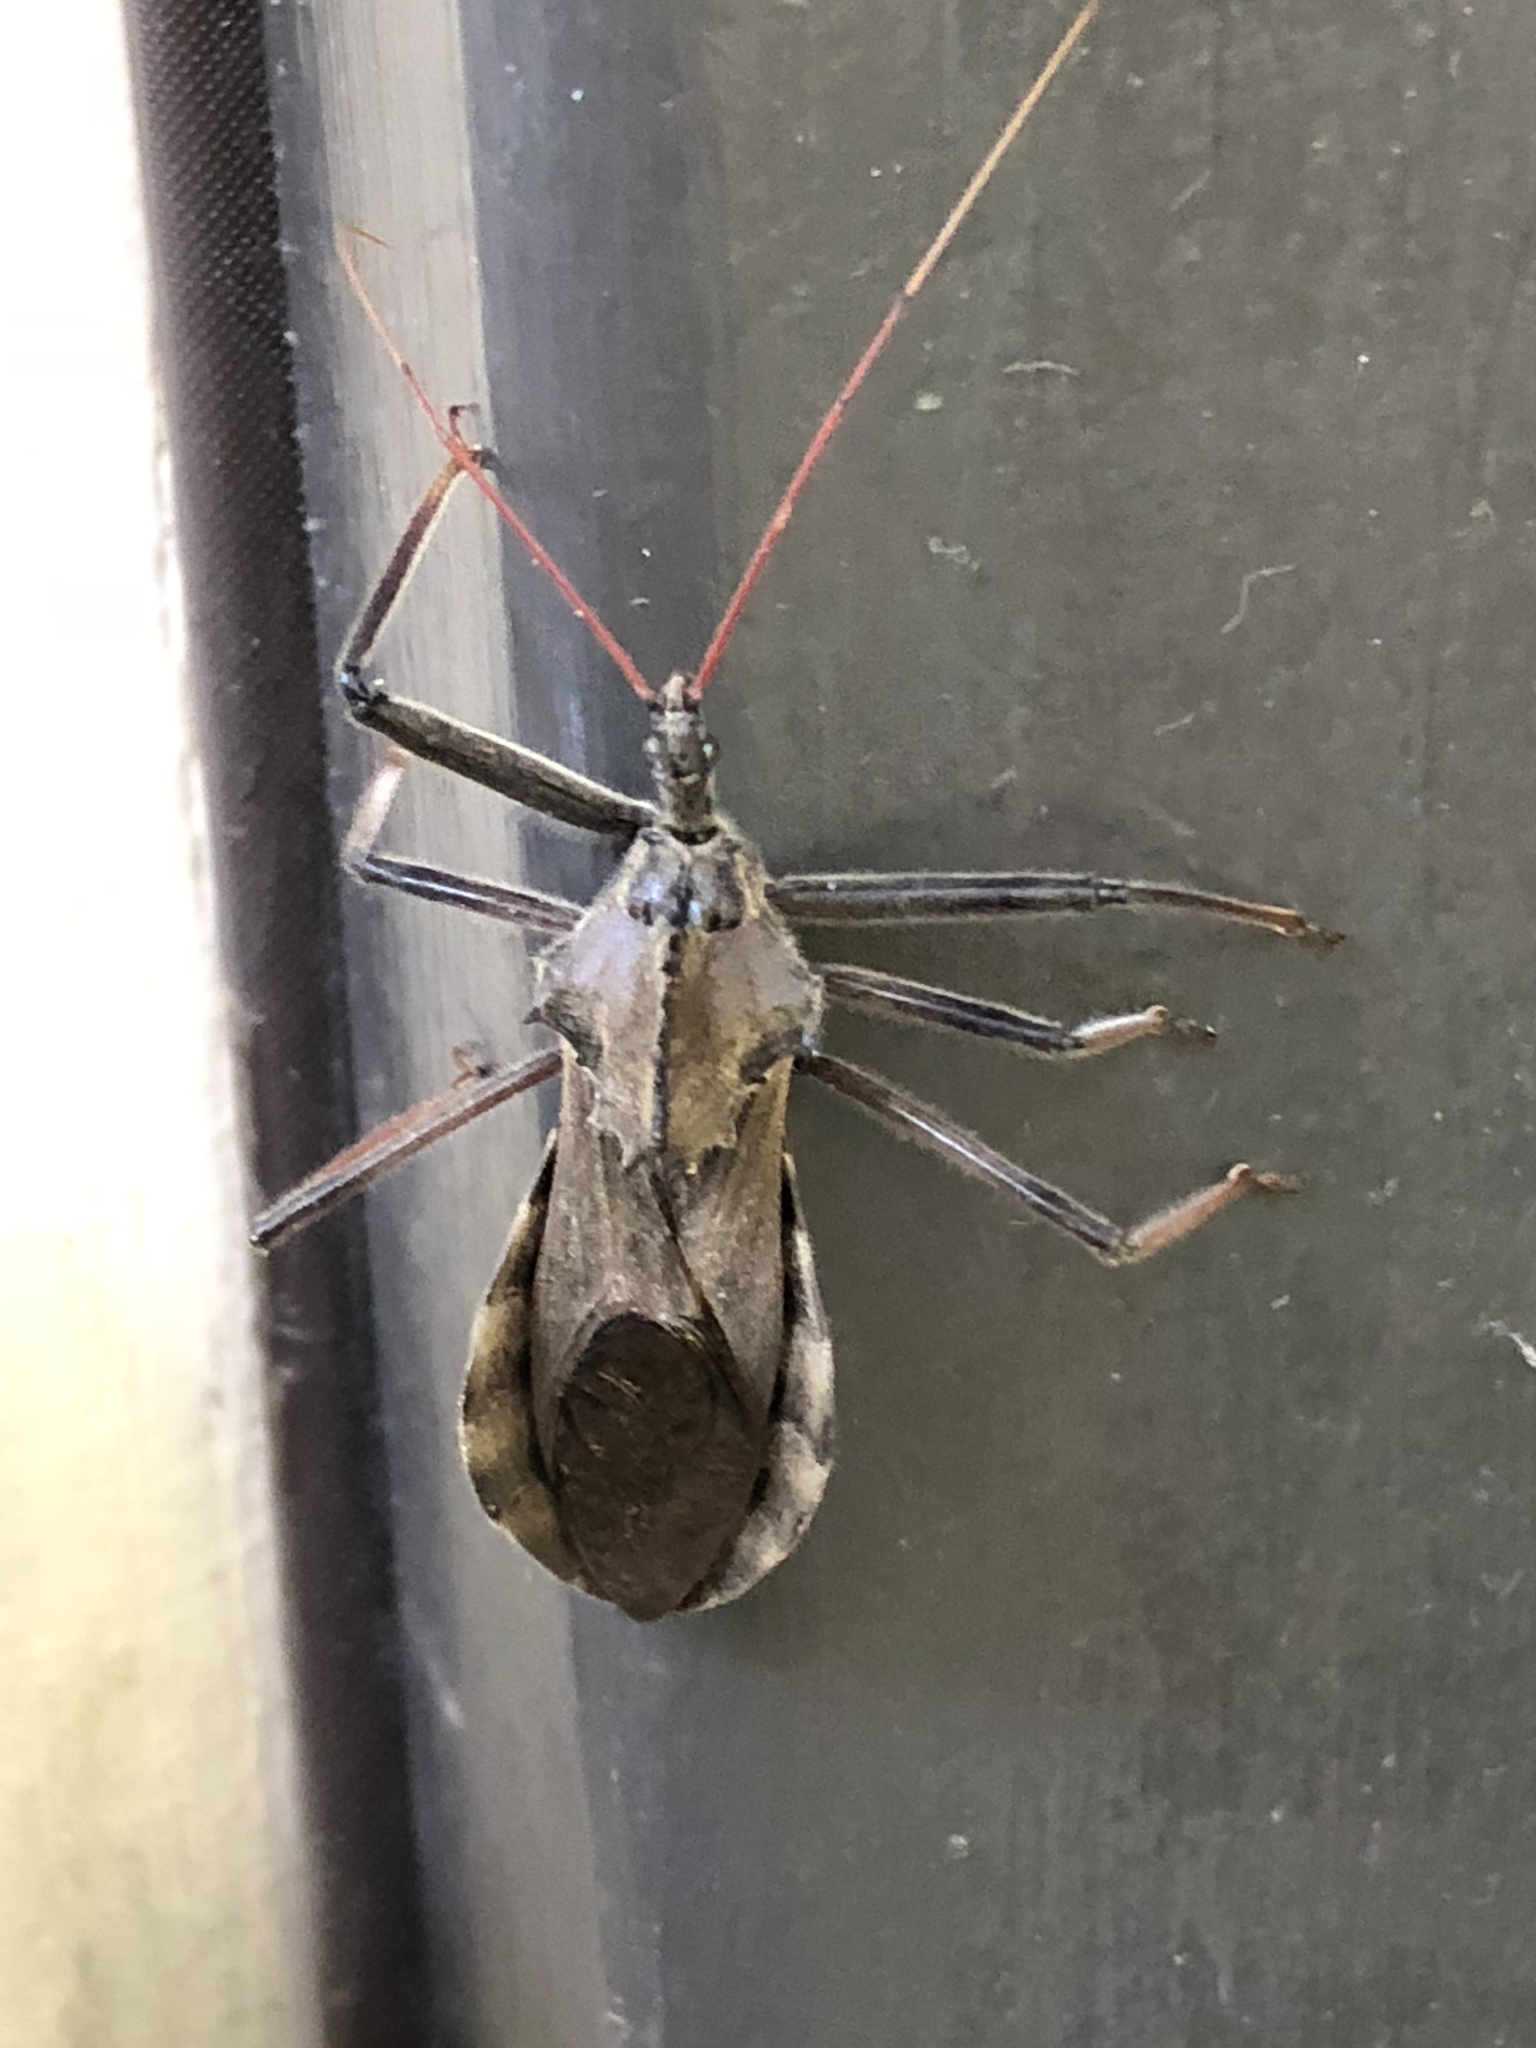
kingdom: Animalia
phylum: Arthropoda
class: Insecta
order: Hemiptera
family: Reduviidae
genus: Arilus
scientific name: Arilus cristatus
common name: North american wheel bug
